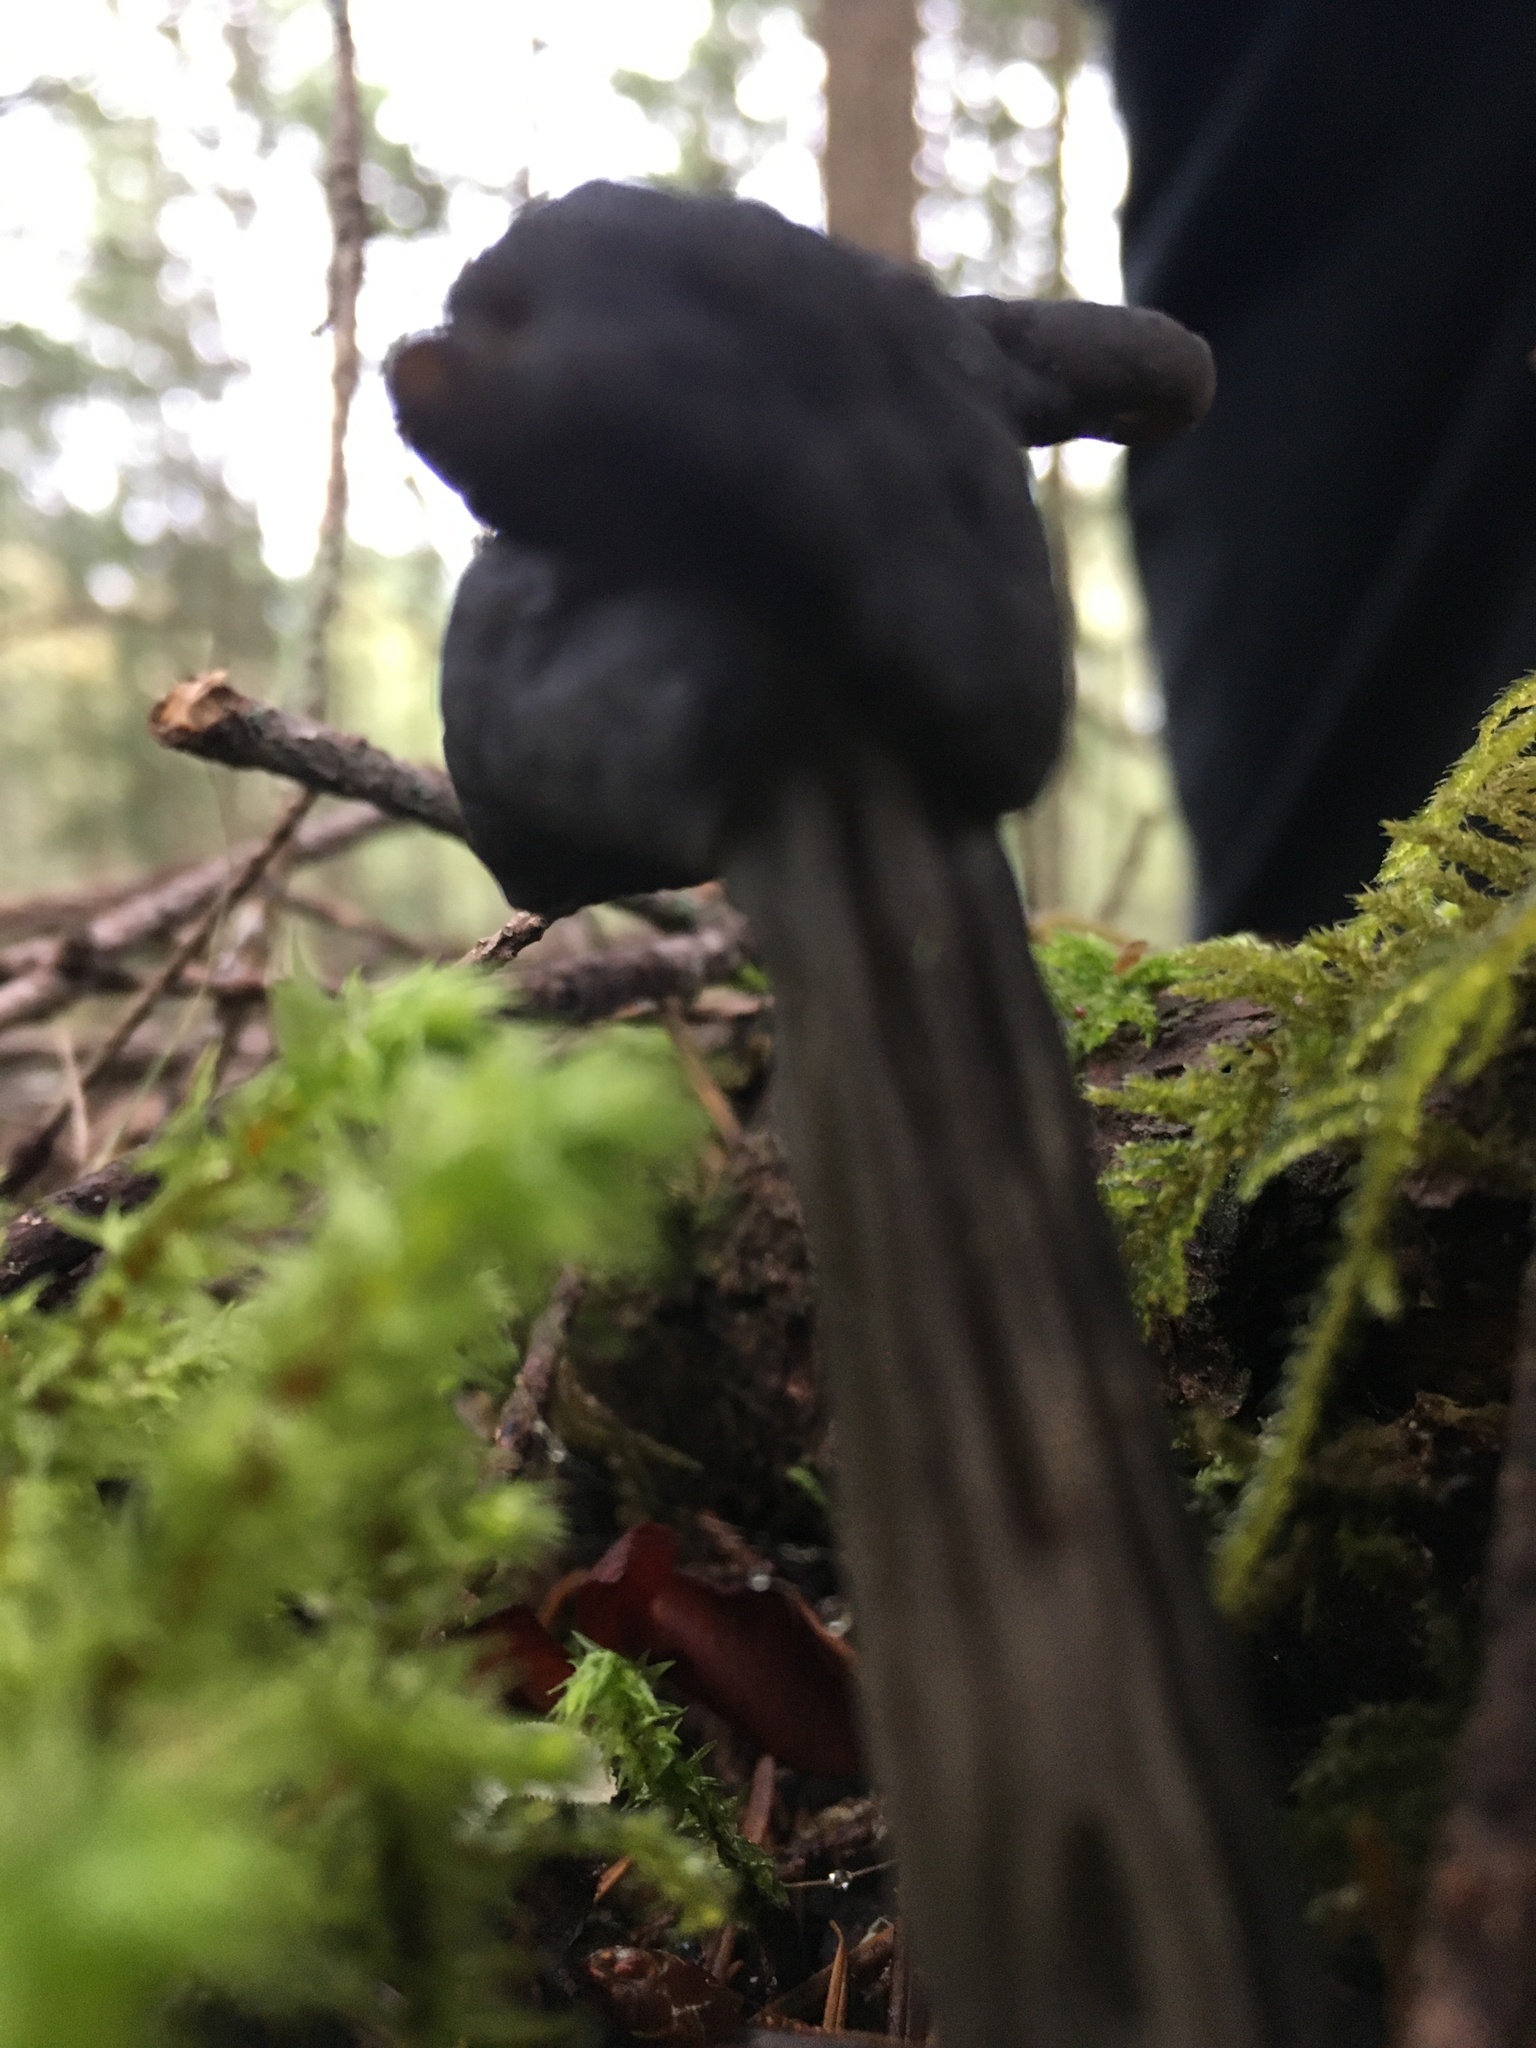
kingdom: Fungi
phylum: Ascomycota
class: Pezizomycetes
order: Pezizales
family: Helvellaceae
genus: Helvella
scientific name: Helvella vespertina
